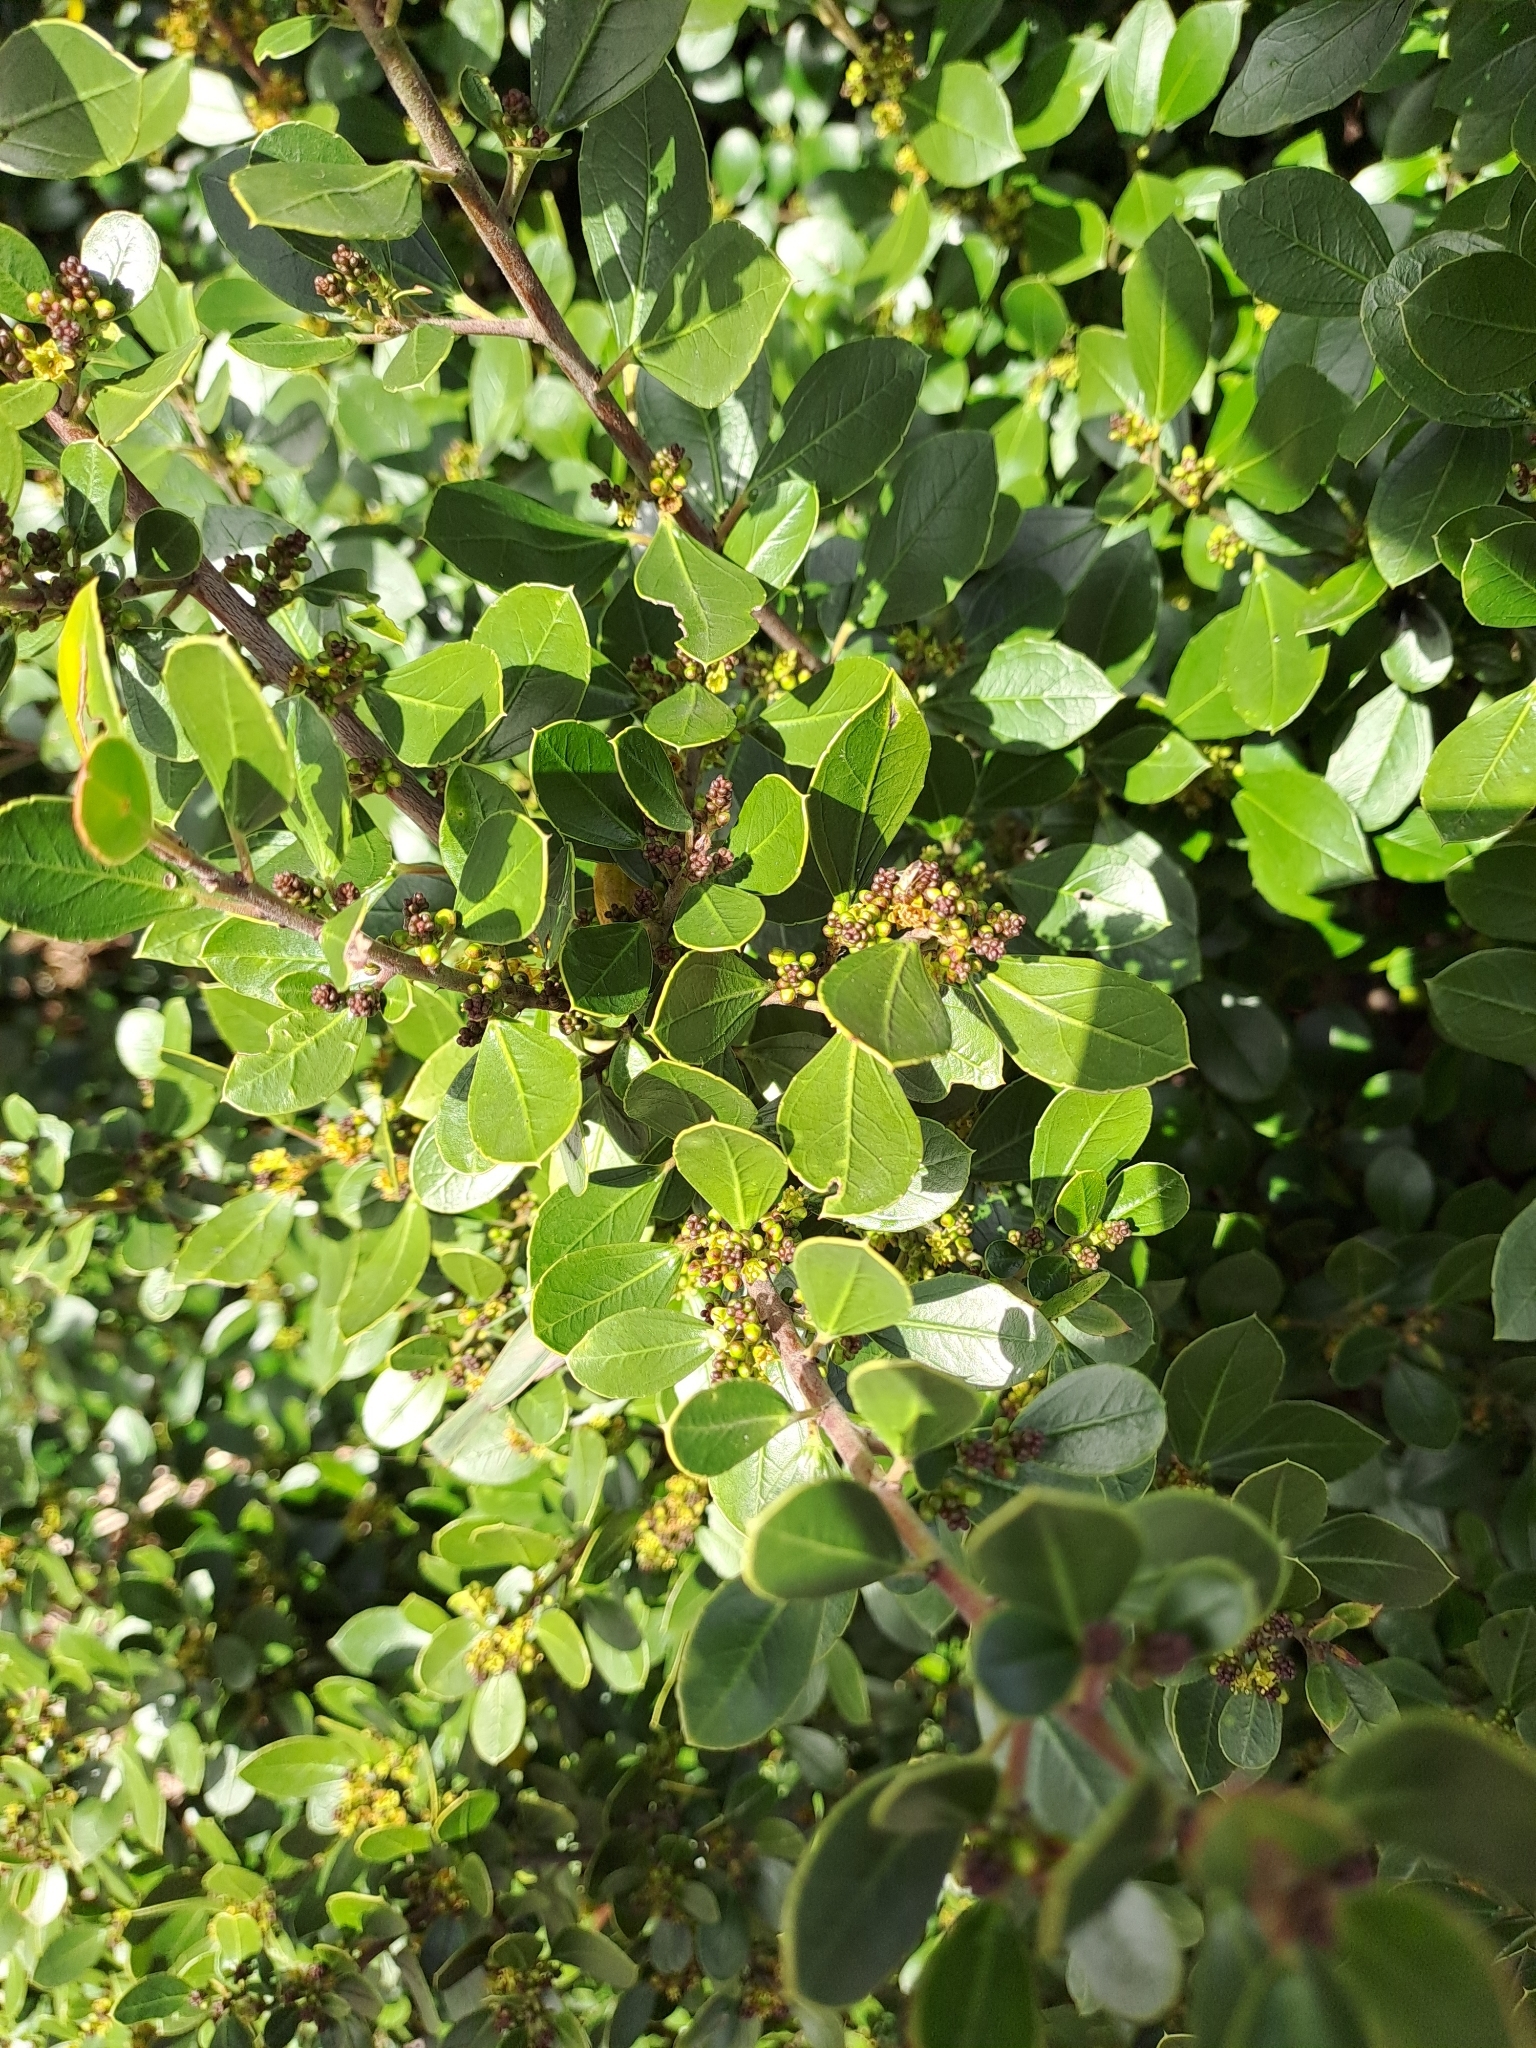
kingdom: Plantae
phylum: Tracheophyta
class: Magnoliopsida
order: Rosales
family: Rhamnaceae
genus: Rhamnus
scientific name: Rhamnus alaternus
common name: Mediterranean buckthorn
